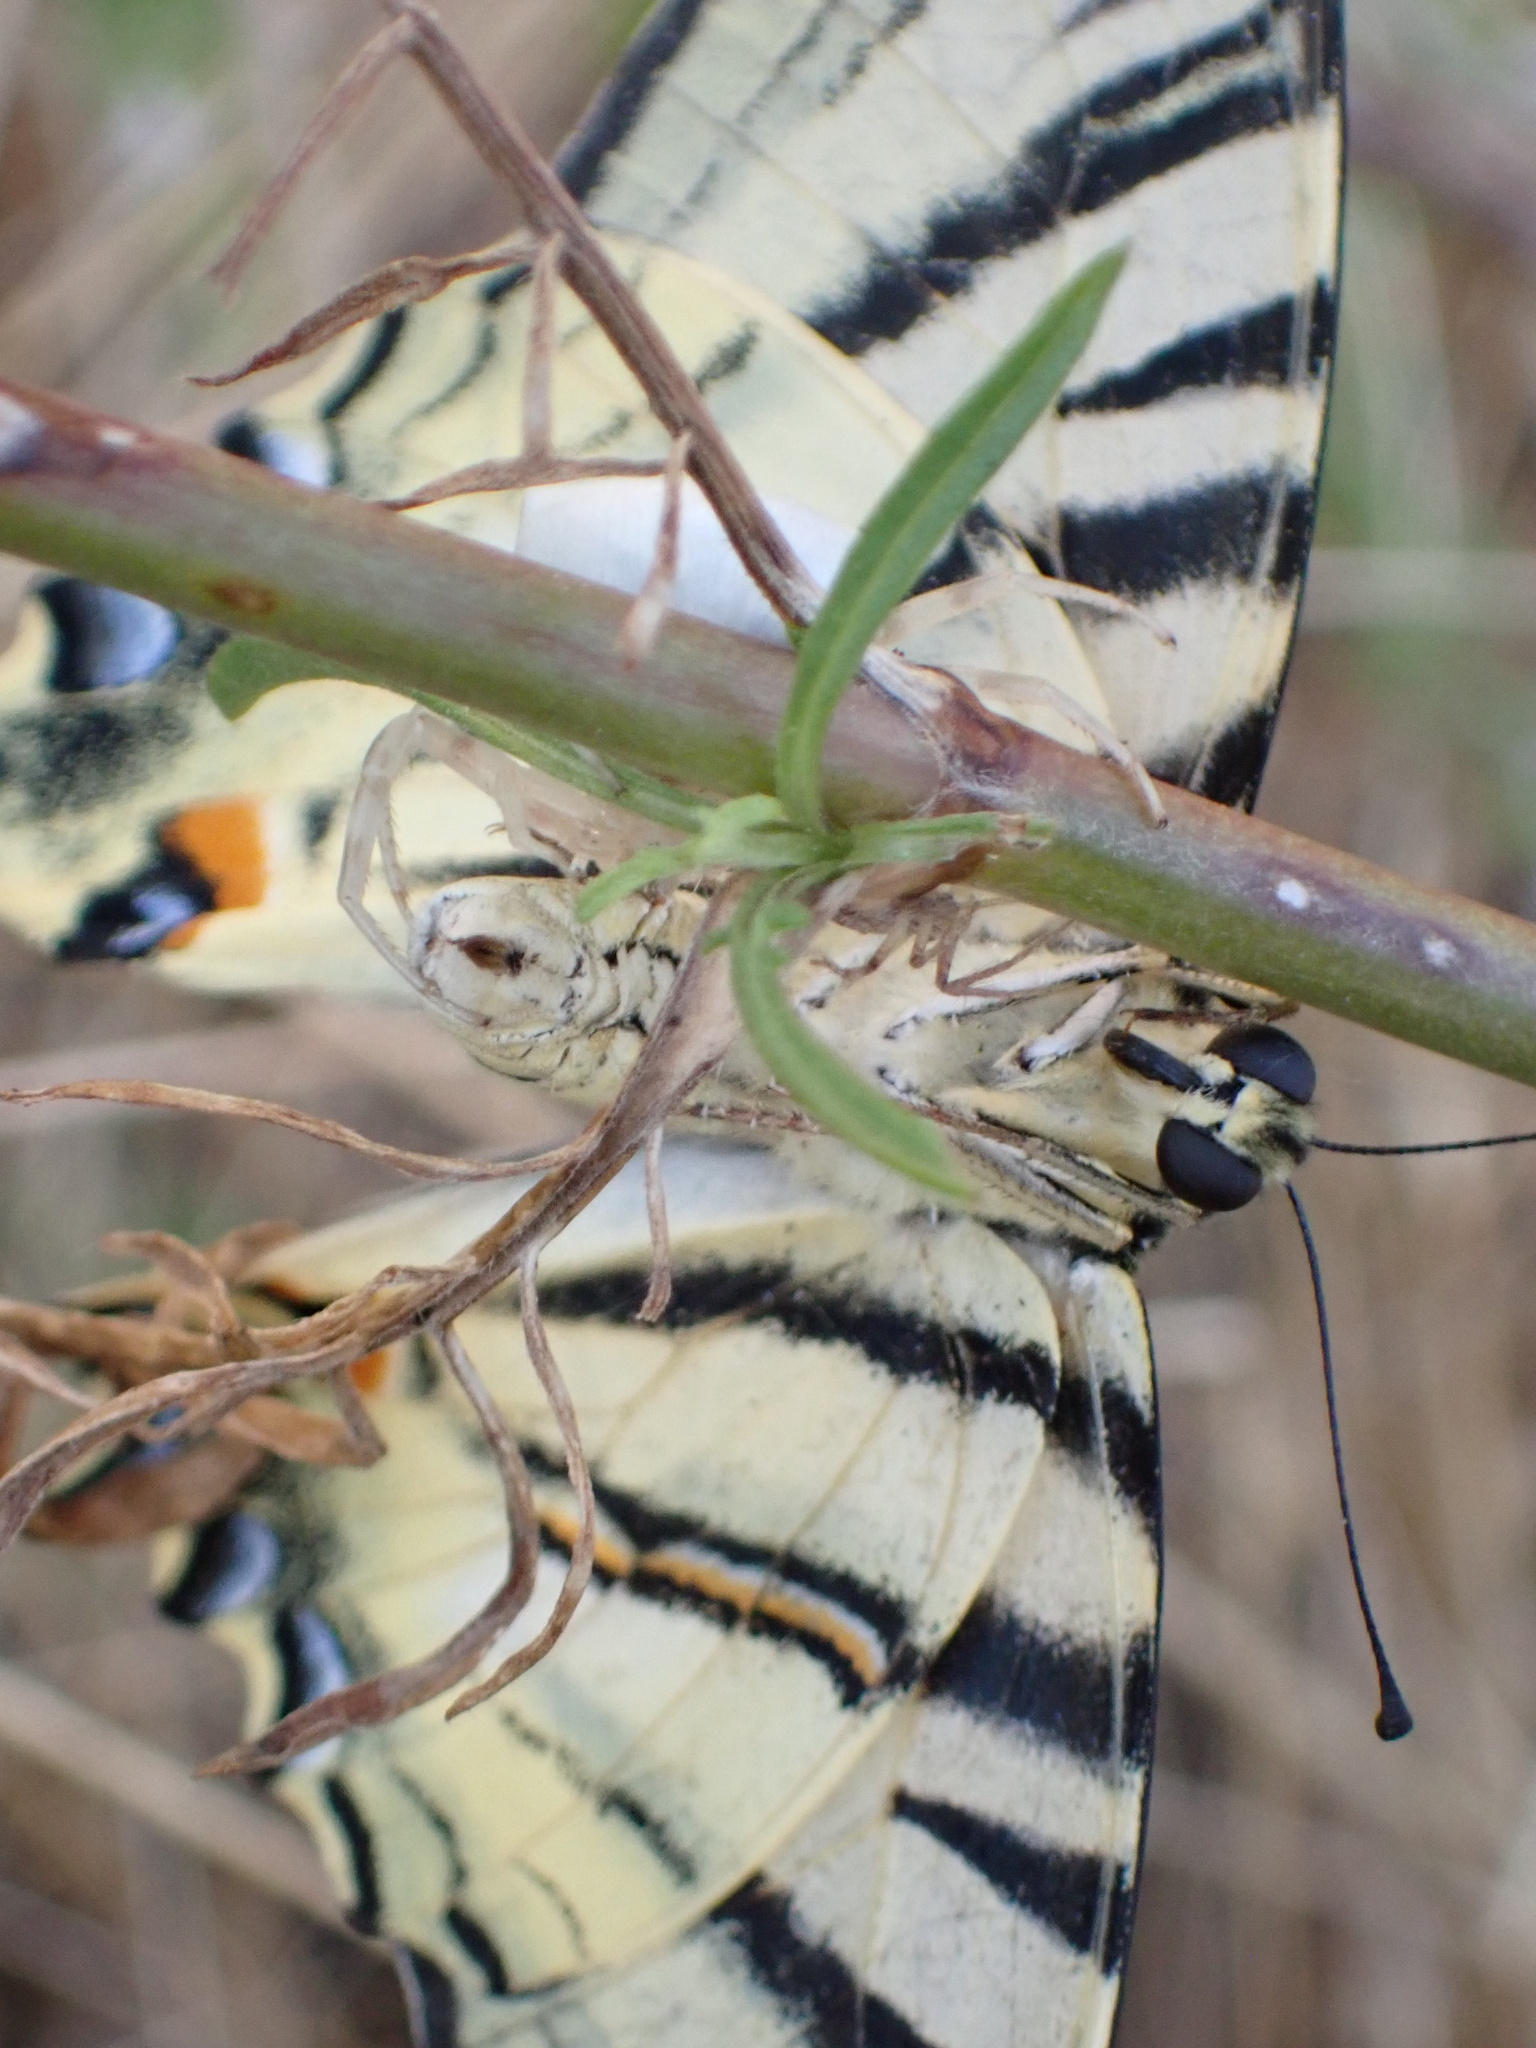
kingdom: Animalia
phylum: Arthropoda
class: Insecta
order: Lepidoptera
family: Papilionidae
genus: Iphiclides
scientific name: Iphiclides podalirius
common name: Scarce swallowtail
